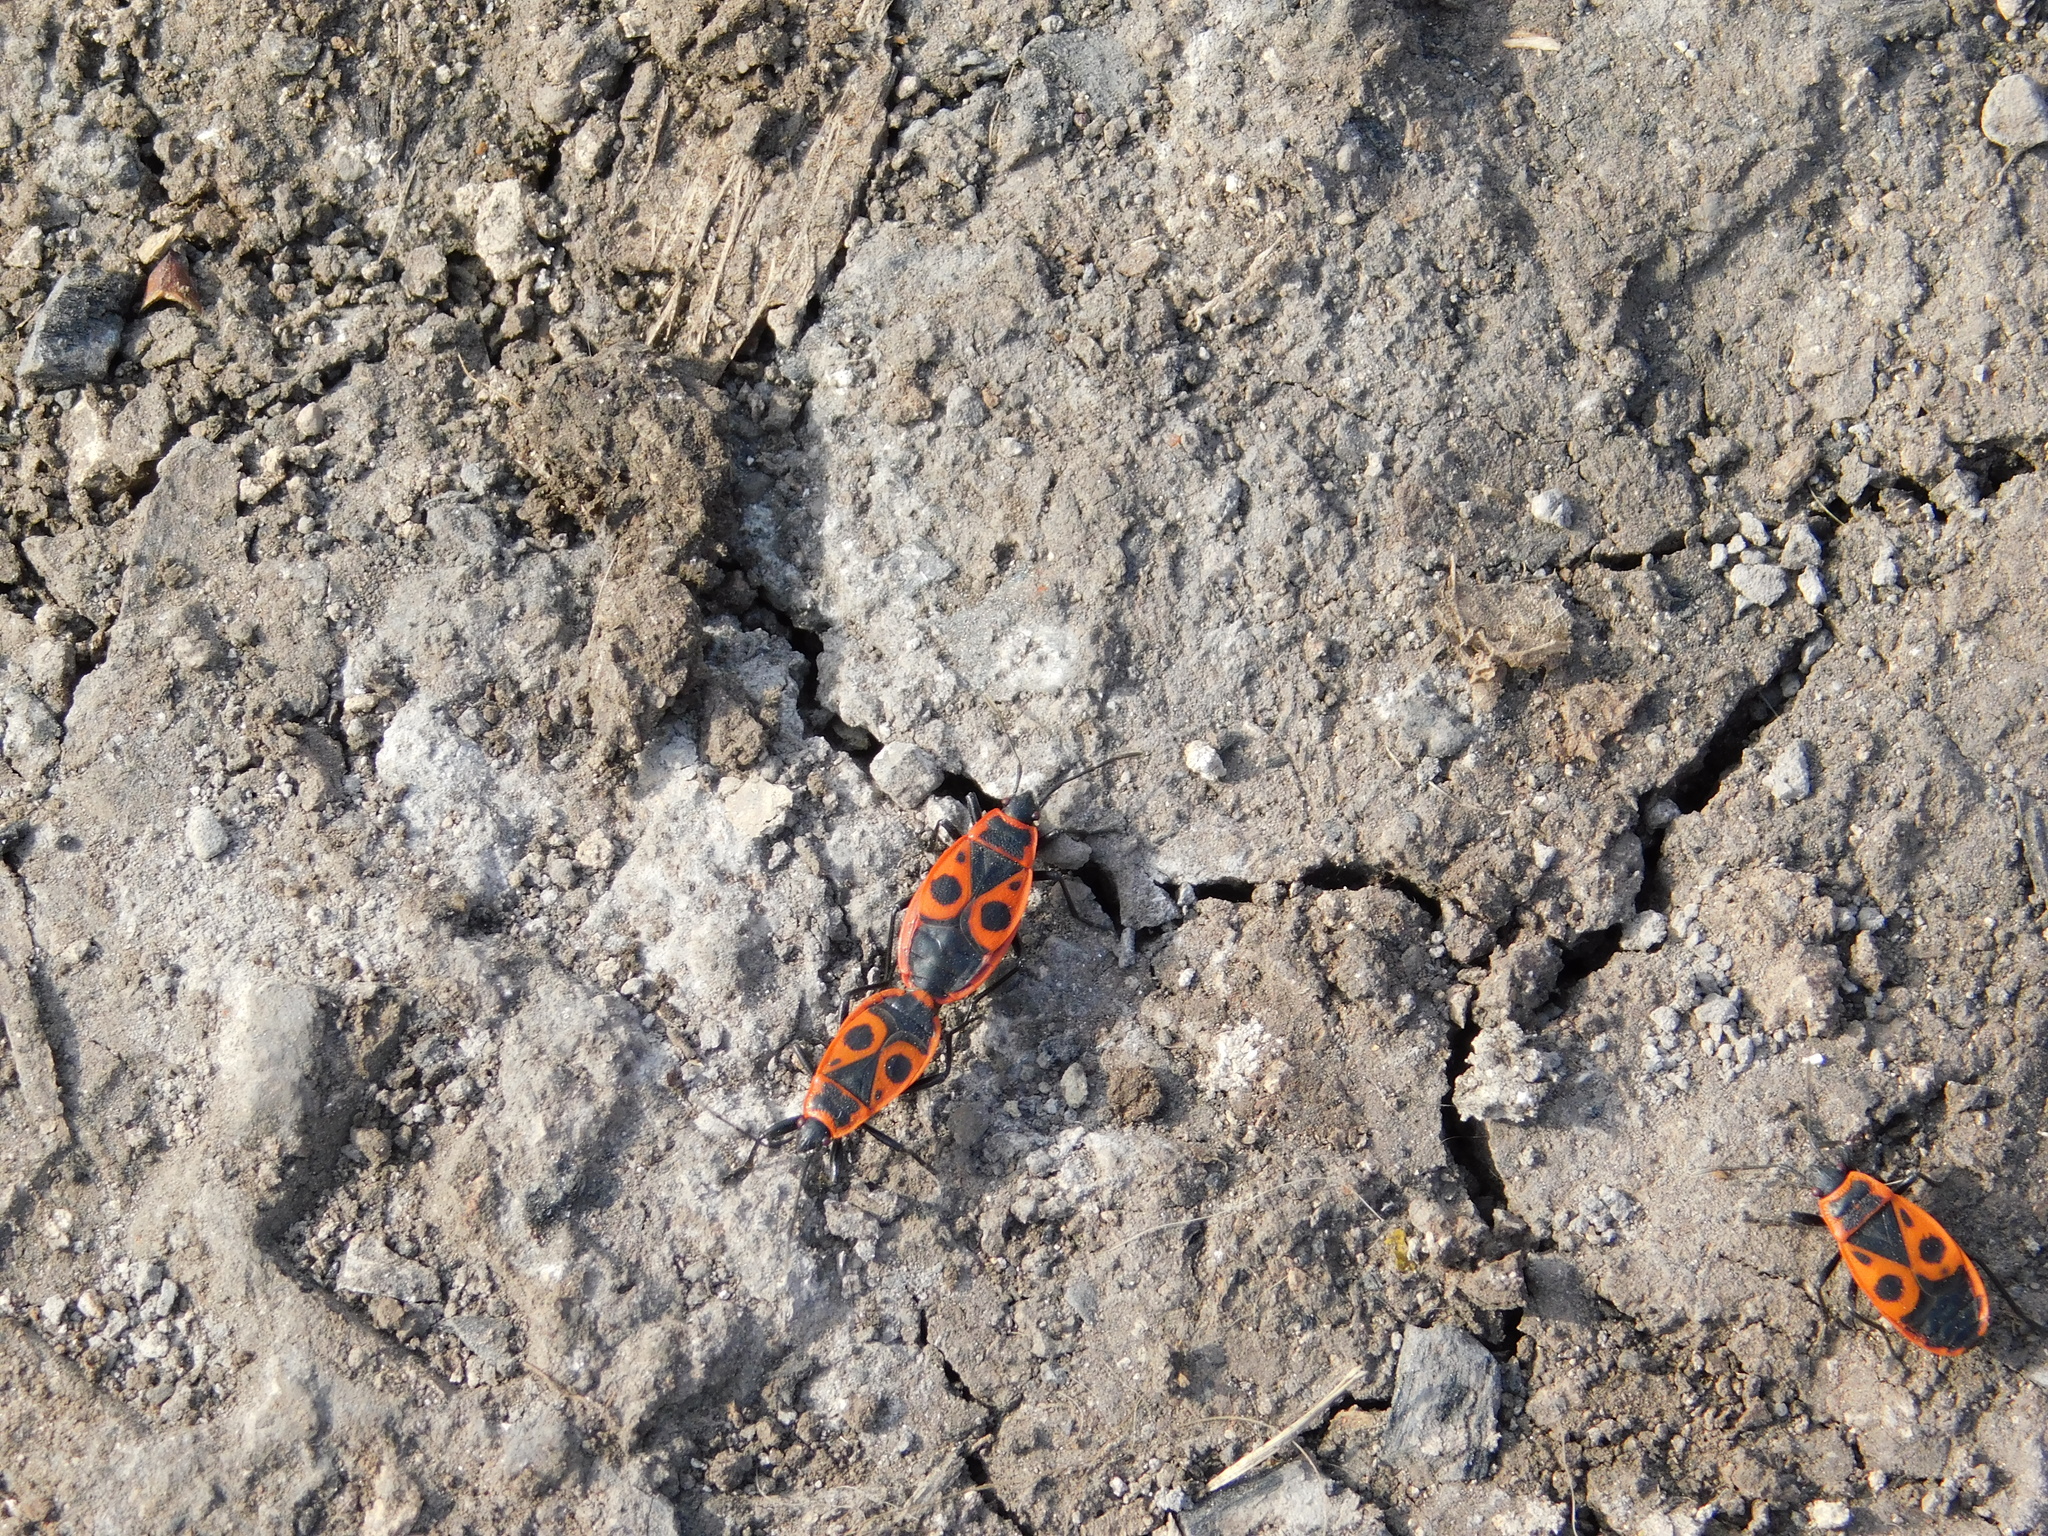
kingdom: Animalia
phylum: Arthropoda
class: Insecta
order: Hemiptera
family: Pyrrhocoridae
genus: Pyrrhocoris
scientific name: Pyrrhocoris apterus
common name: Firebug
